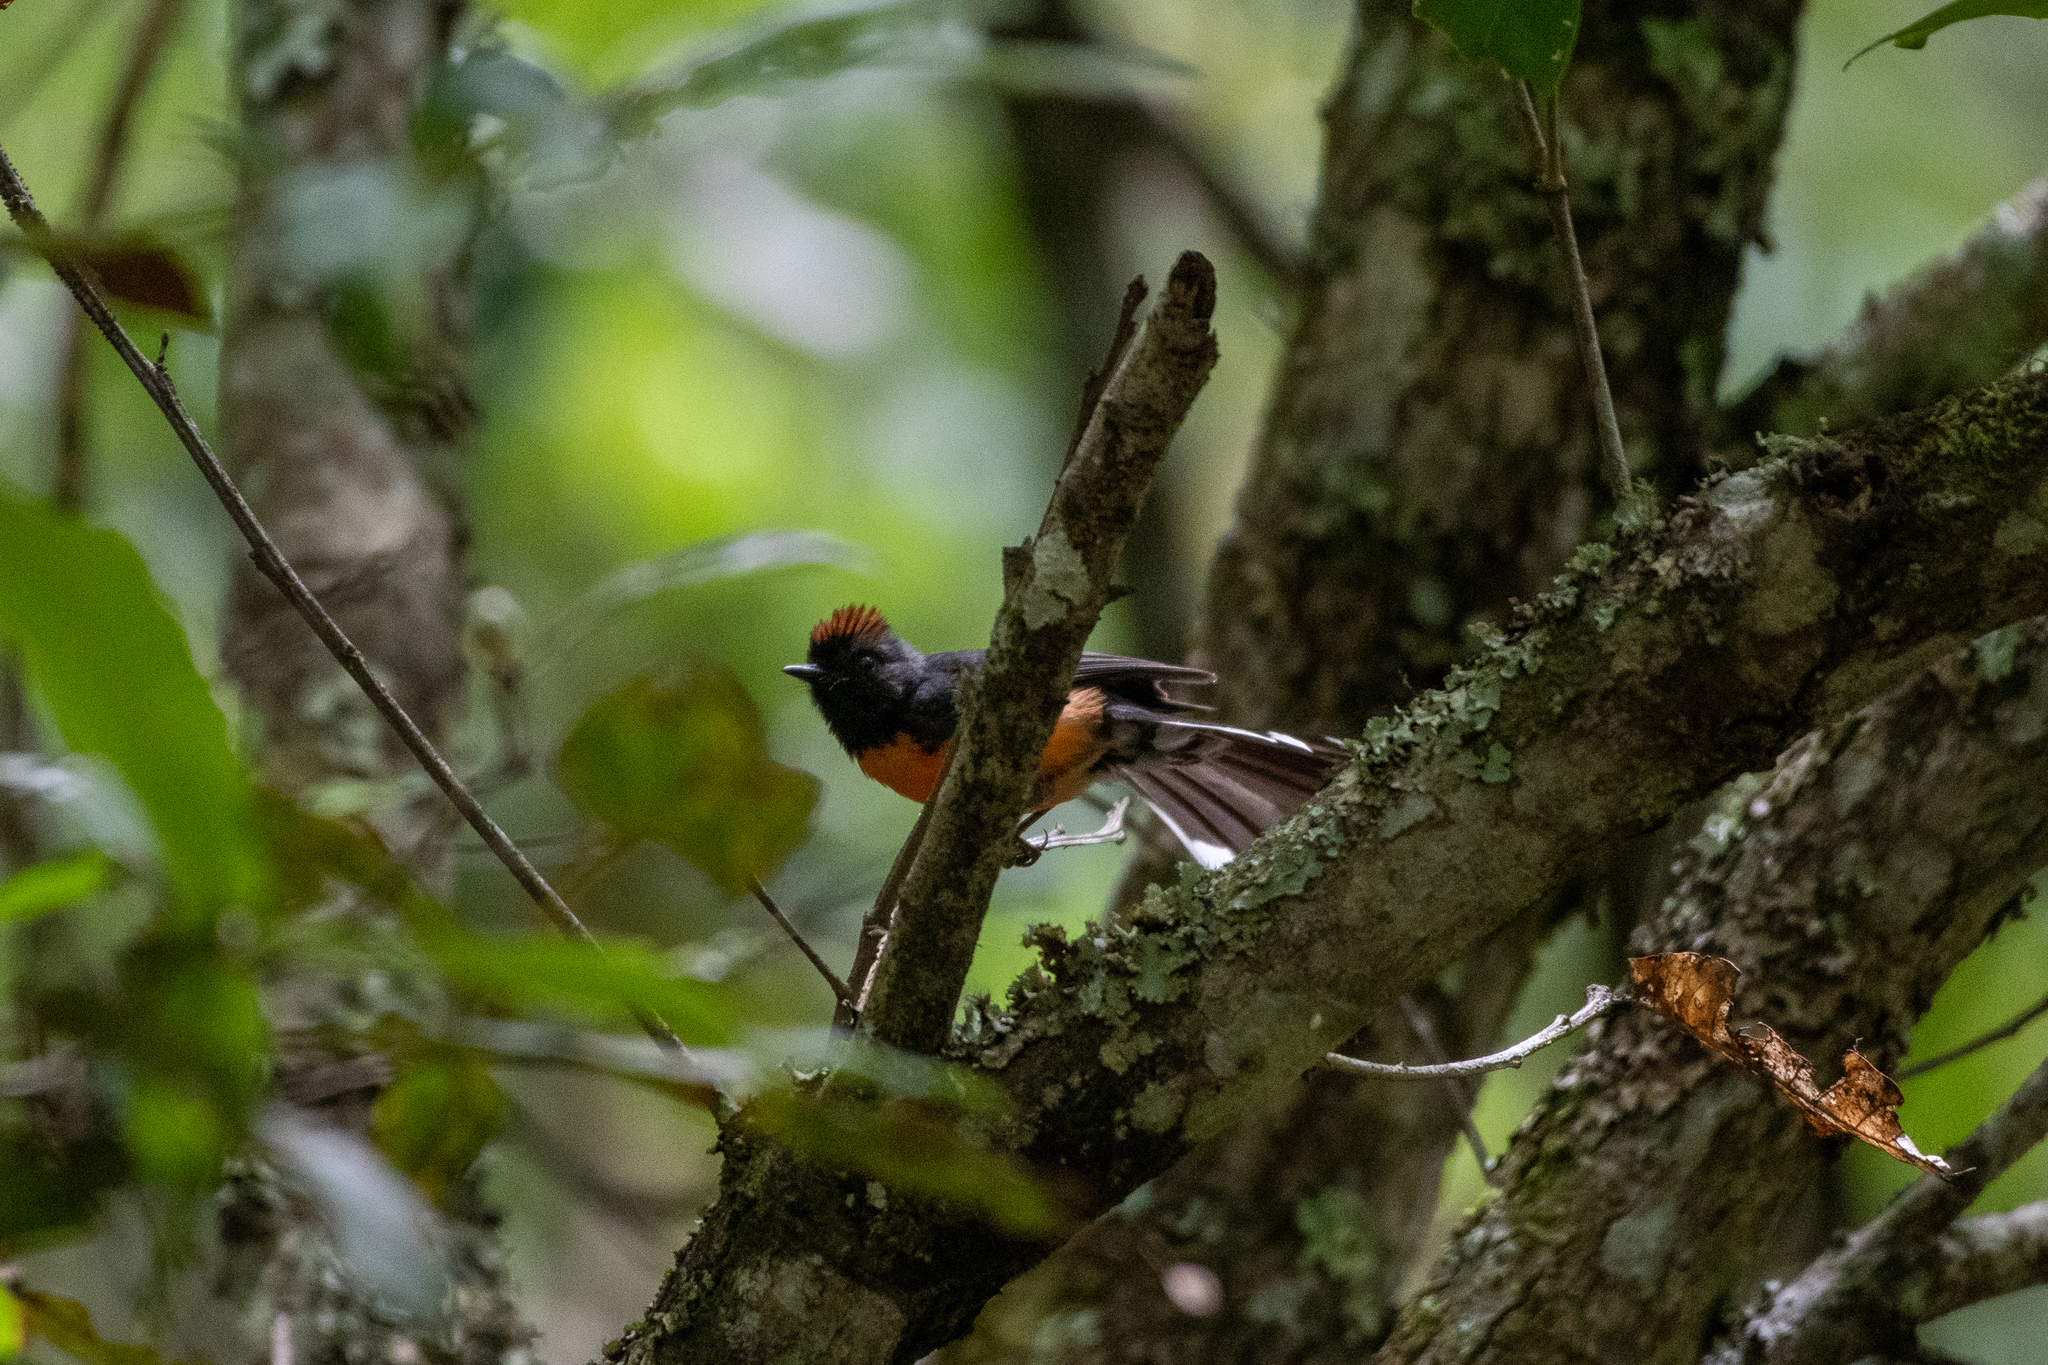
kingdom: Animalia
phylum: Chordata
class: Aves
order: Passeriformes
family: Parulidae
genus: Myioborus
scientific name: Myioborus miniatus
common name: Slate-throated redstart
